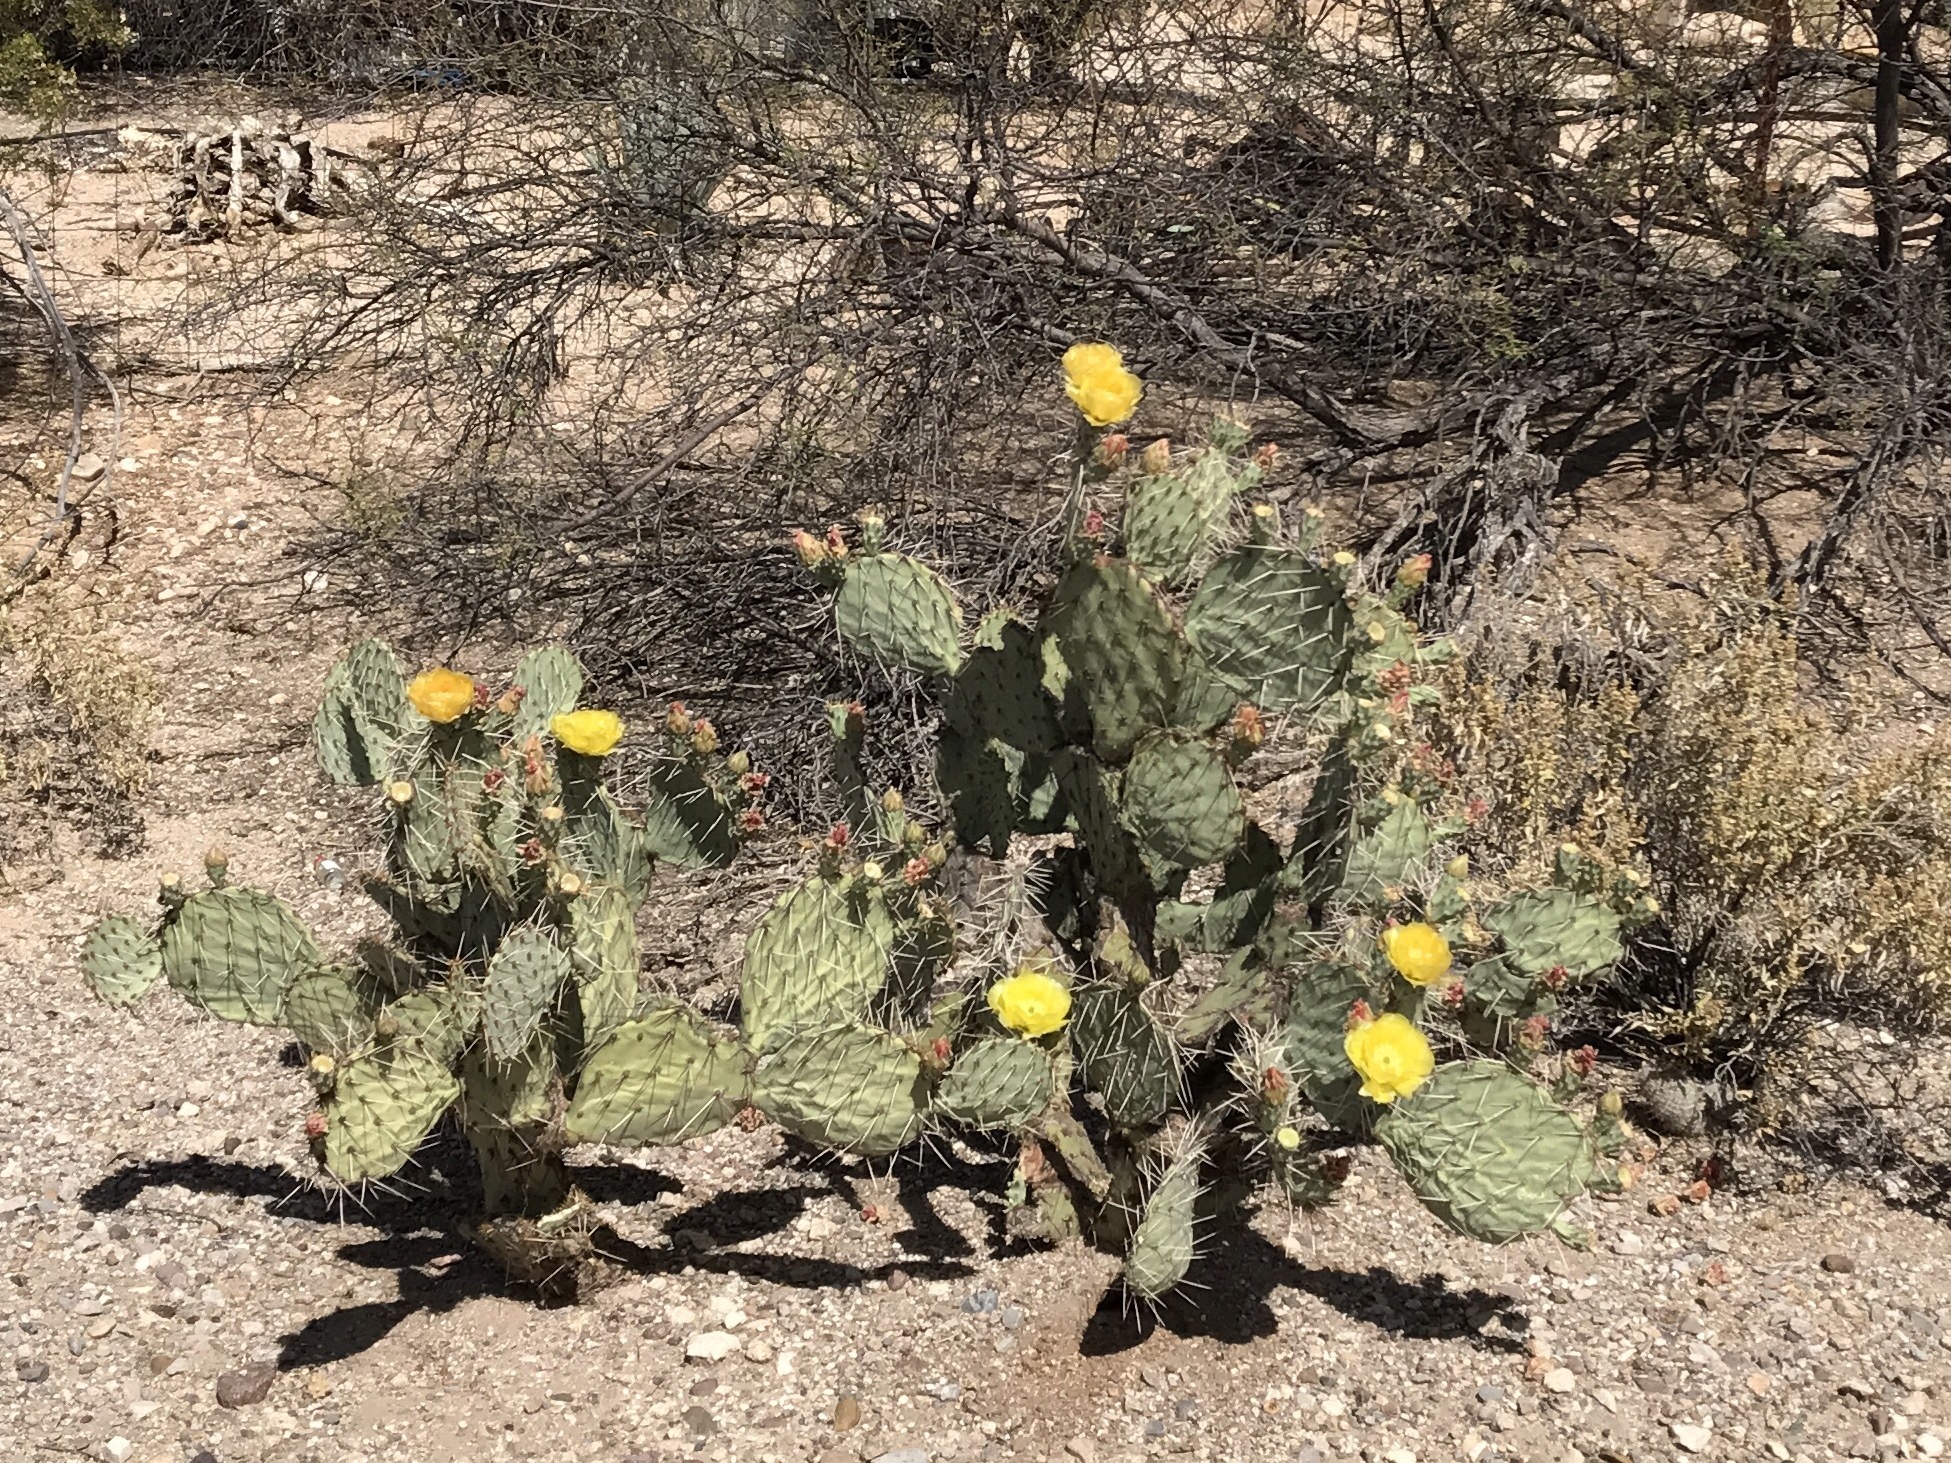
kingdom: Plantae
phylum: Tracheophyta
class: Magnoliopsida
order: Caryophyllales
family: Cactaceae
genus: Opuntia
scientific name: Opuntia engelmannii
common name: Cactus-apple
